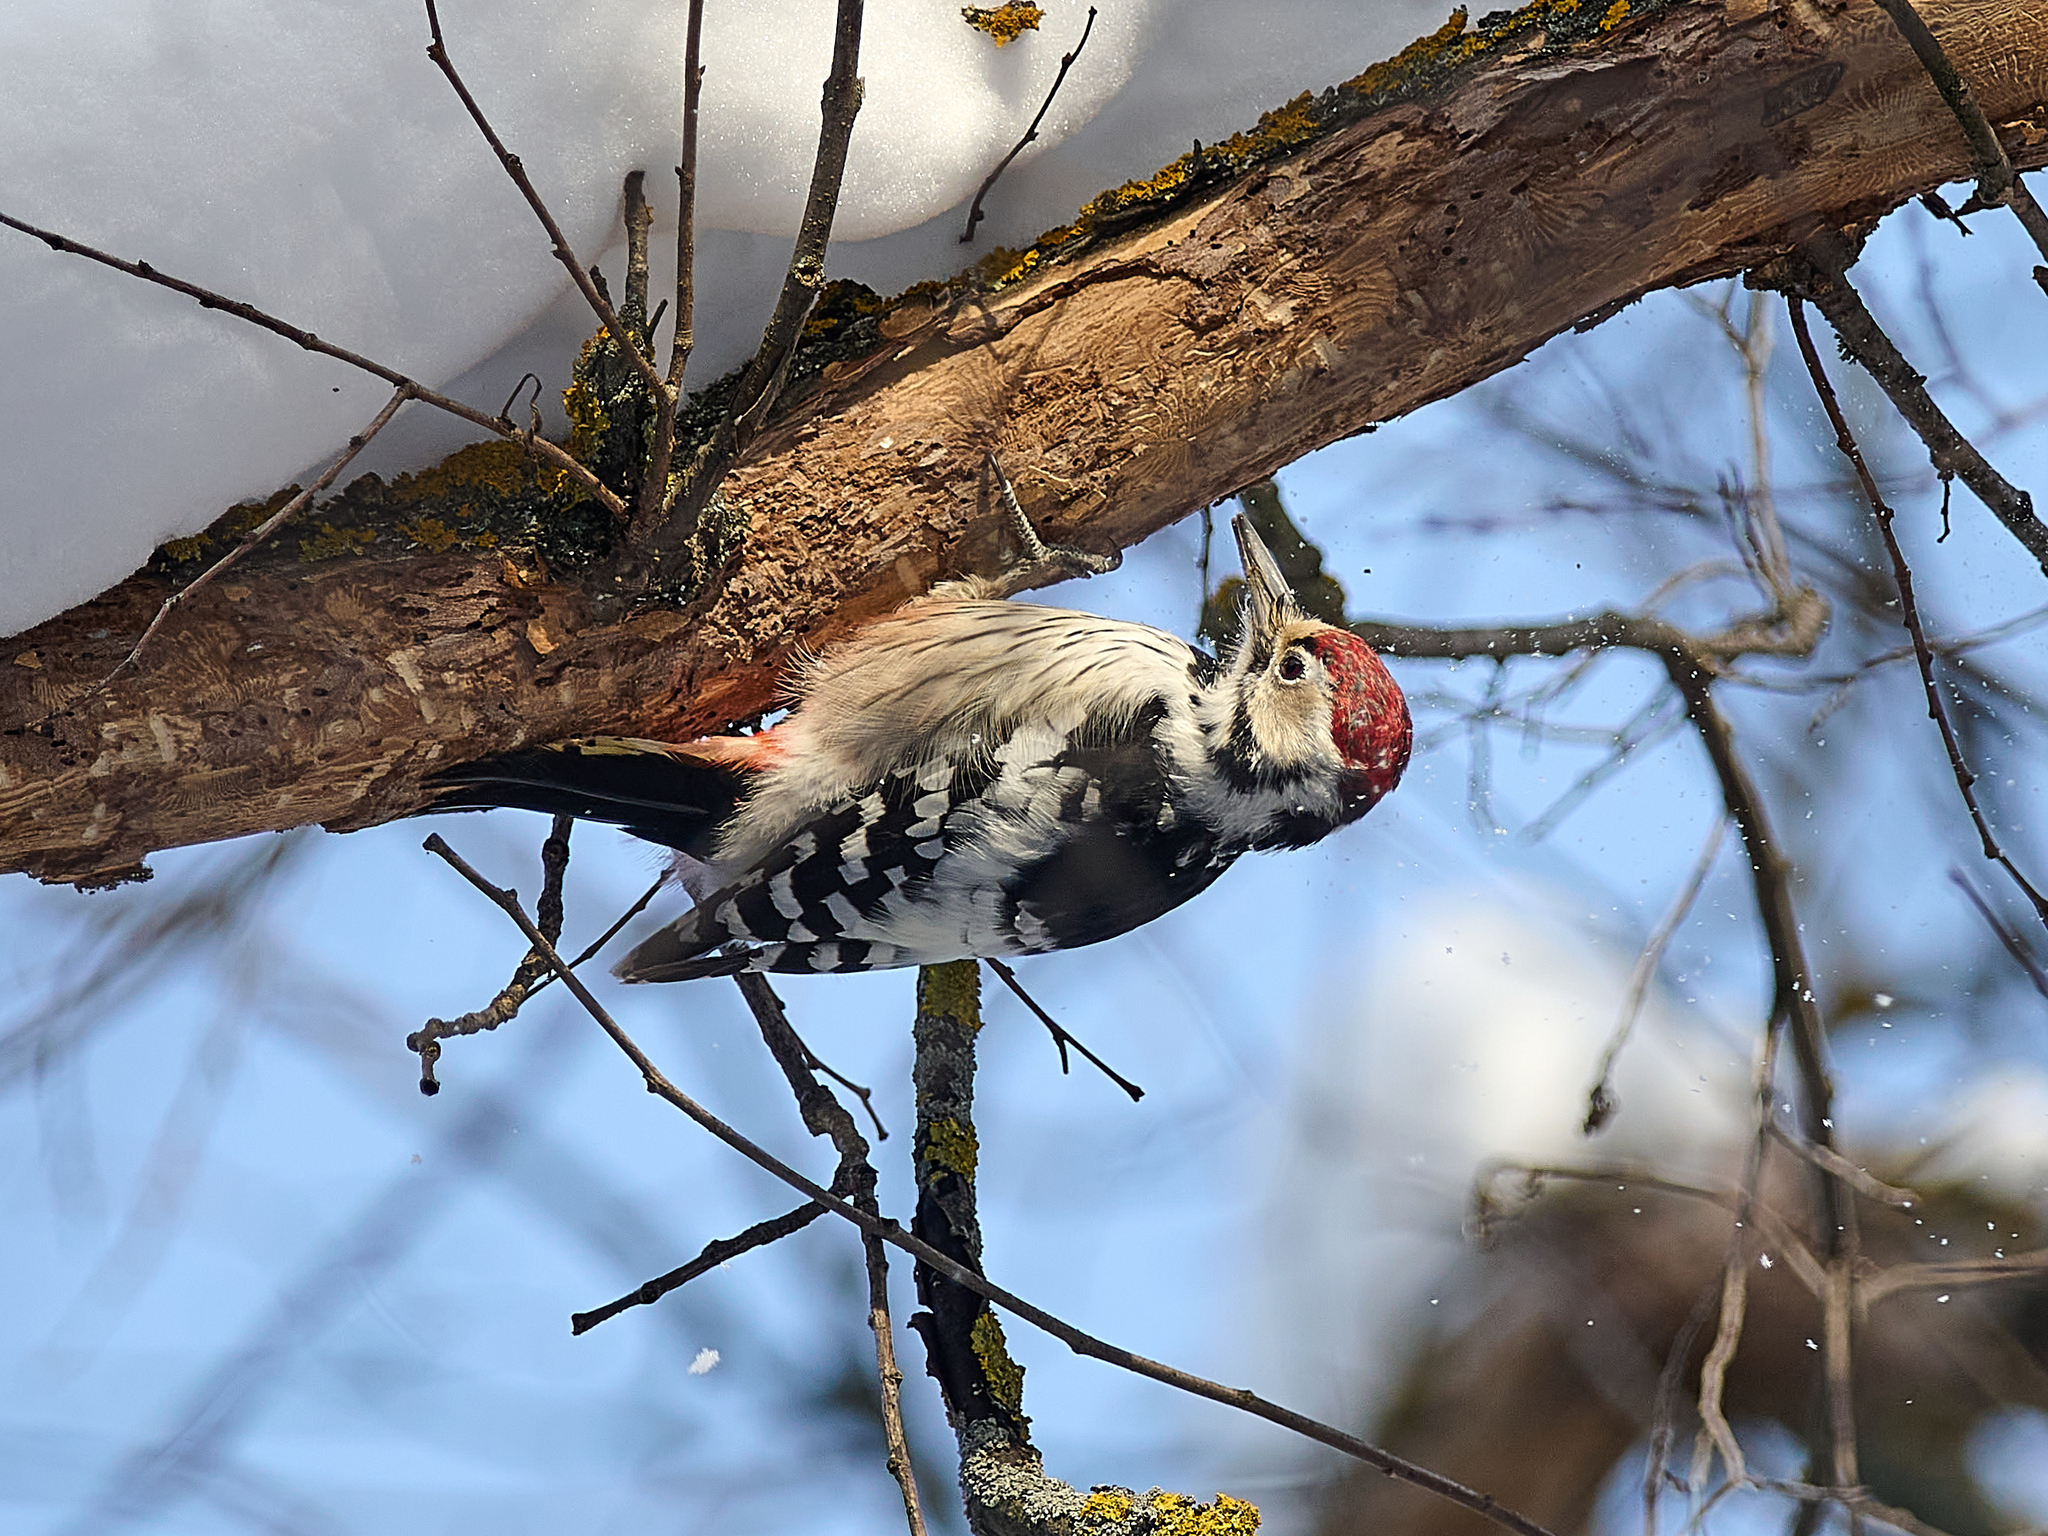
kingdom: Animalia
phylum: Chordata
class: Aves
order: Piciformes
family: Picidae
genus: Dendrocopos
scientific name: Dendrocopos leucotos
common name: White-backed woodpecker
